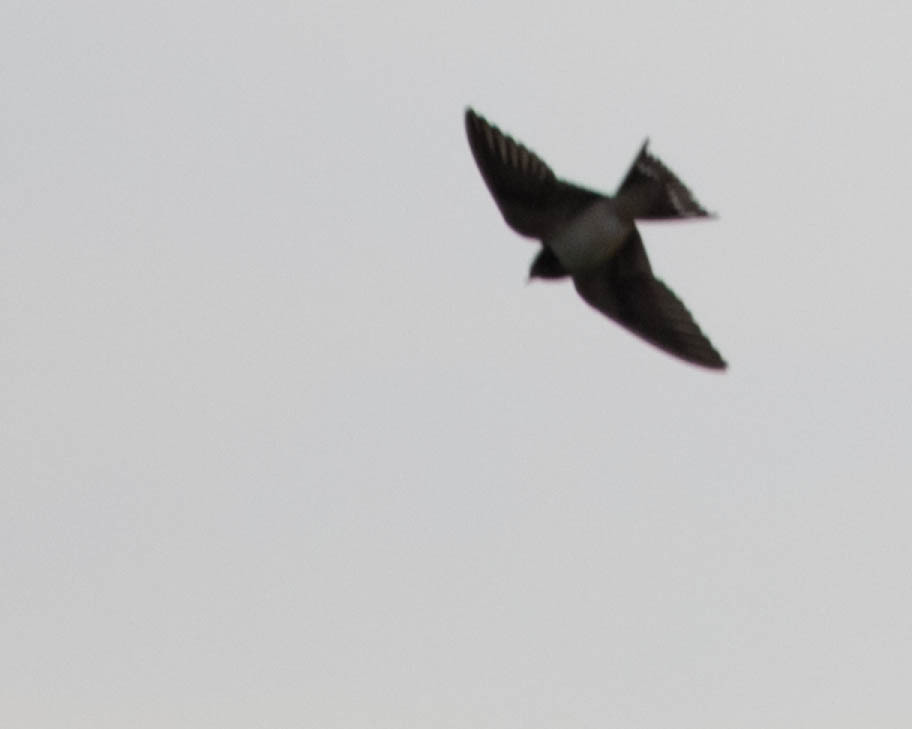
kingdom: Animalia
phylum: Chordata
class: Aves
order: Passeriformes
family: Hirundinidae
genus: Hirundo
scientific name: Hirundo rustica
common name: Barn swallow
